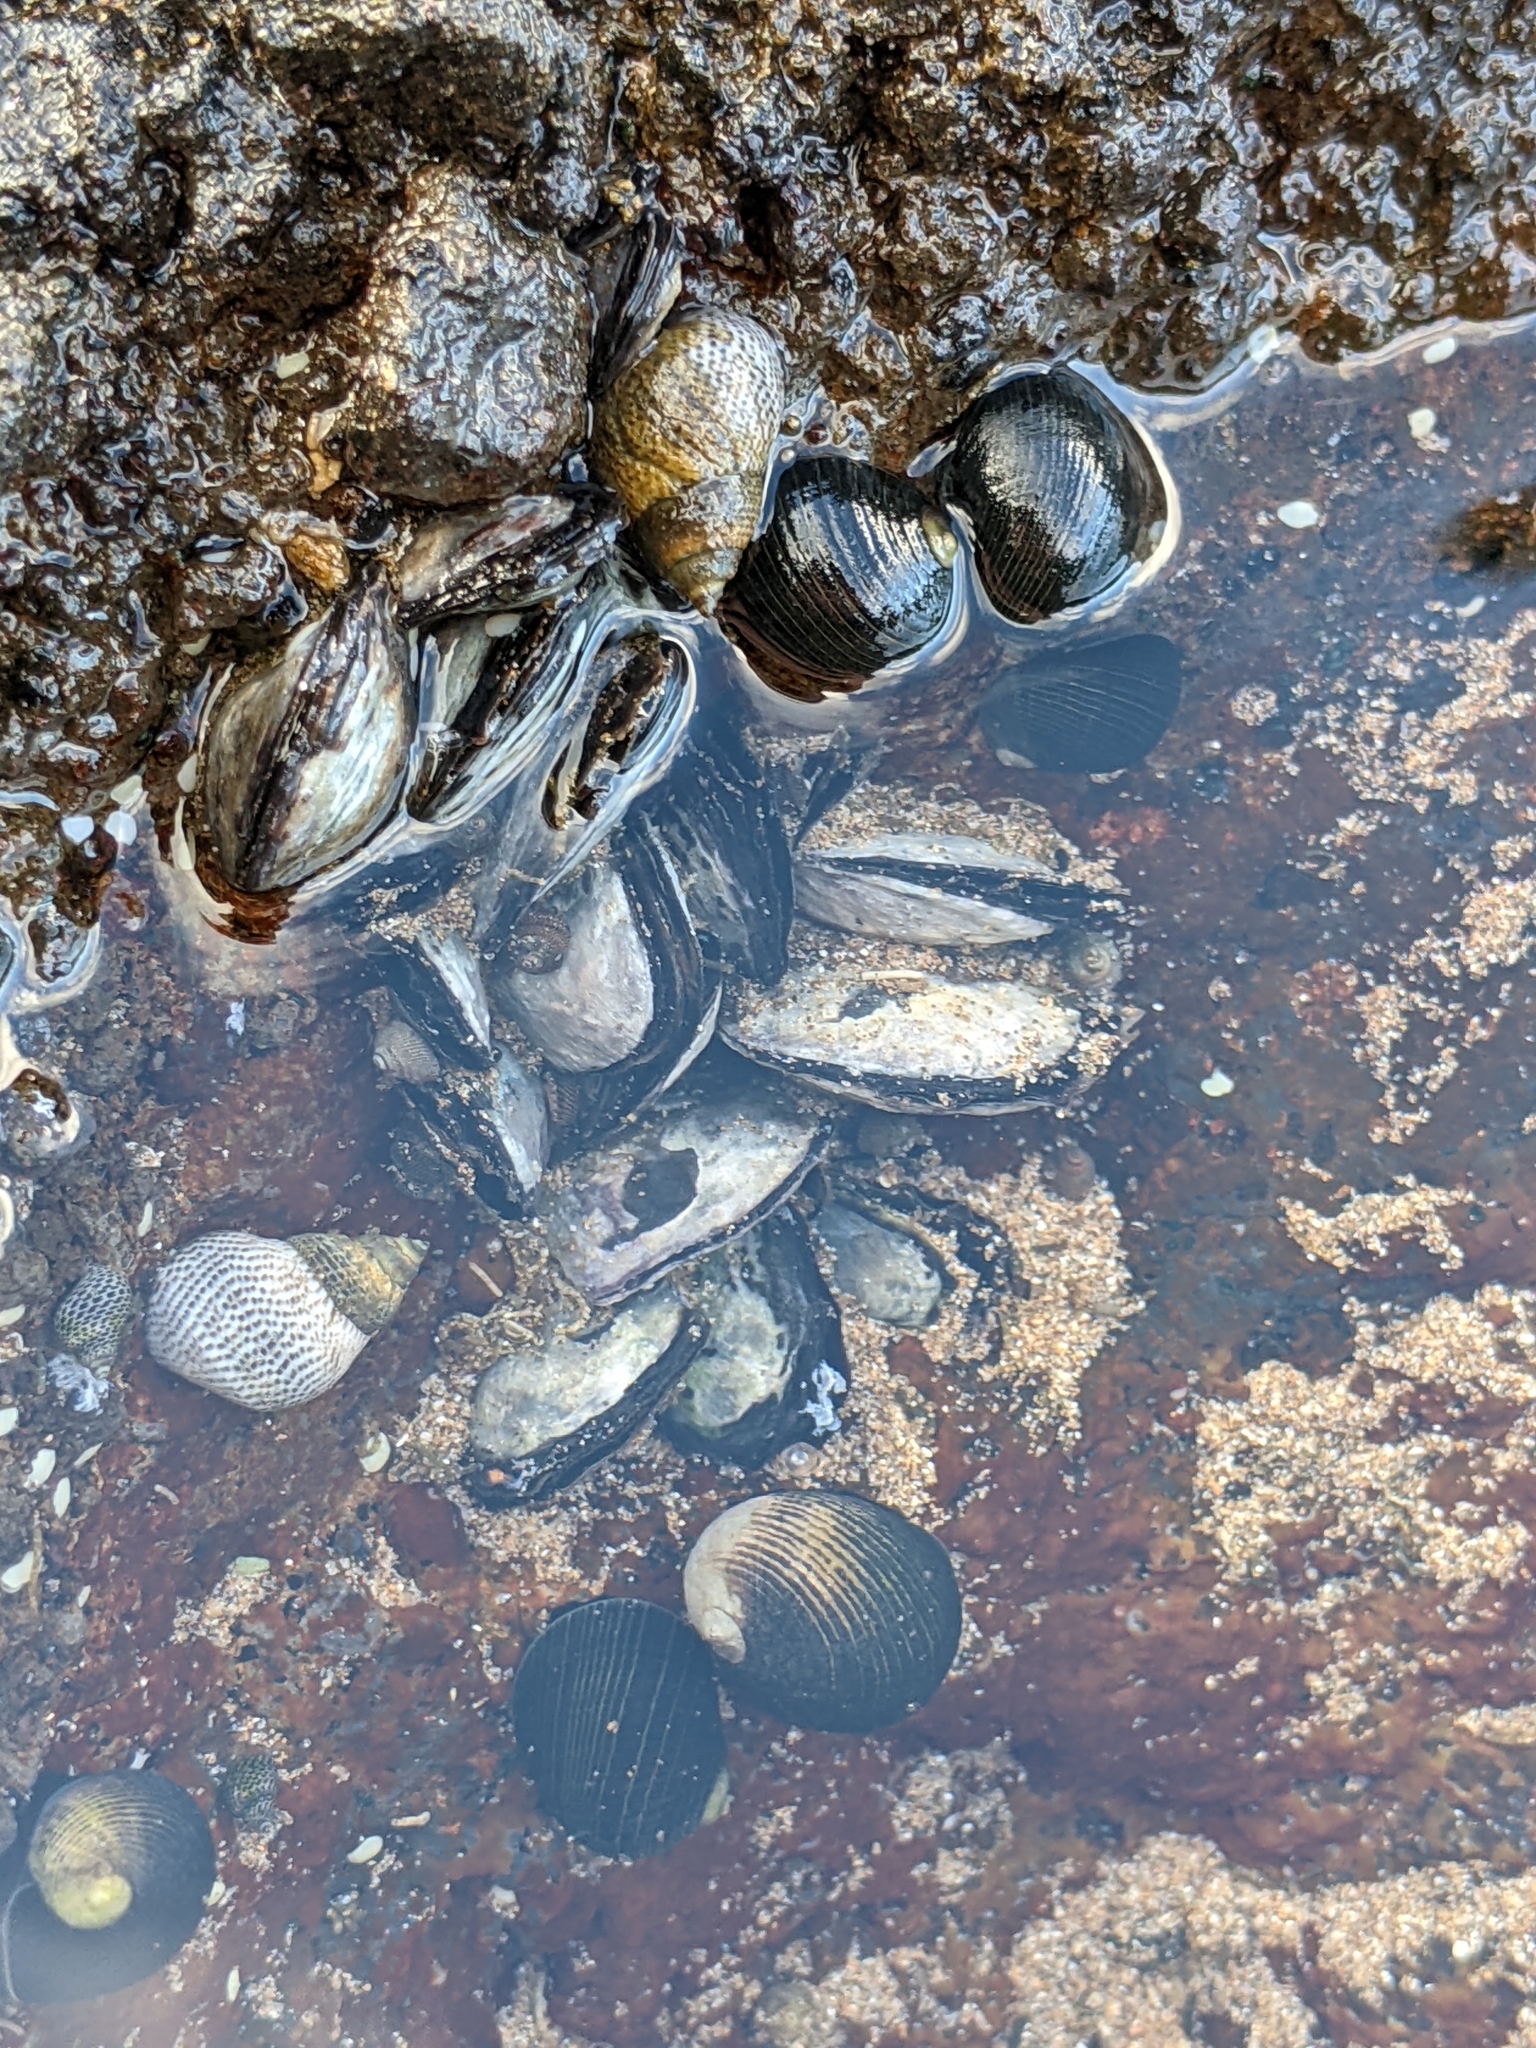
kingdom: Animalia
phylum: Mollusca
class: Bivalvia
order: Ostreida
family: Isognomonidae
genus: Isognomon
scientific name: Isognomon californicus
